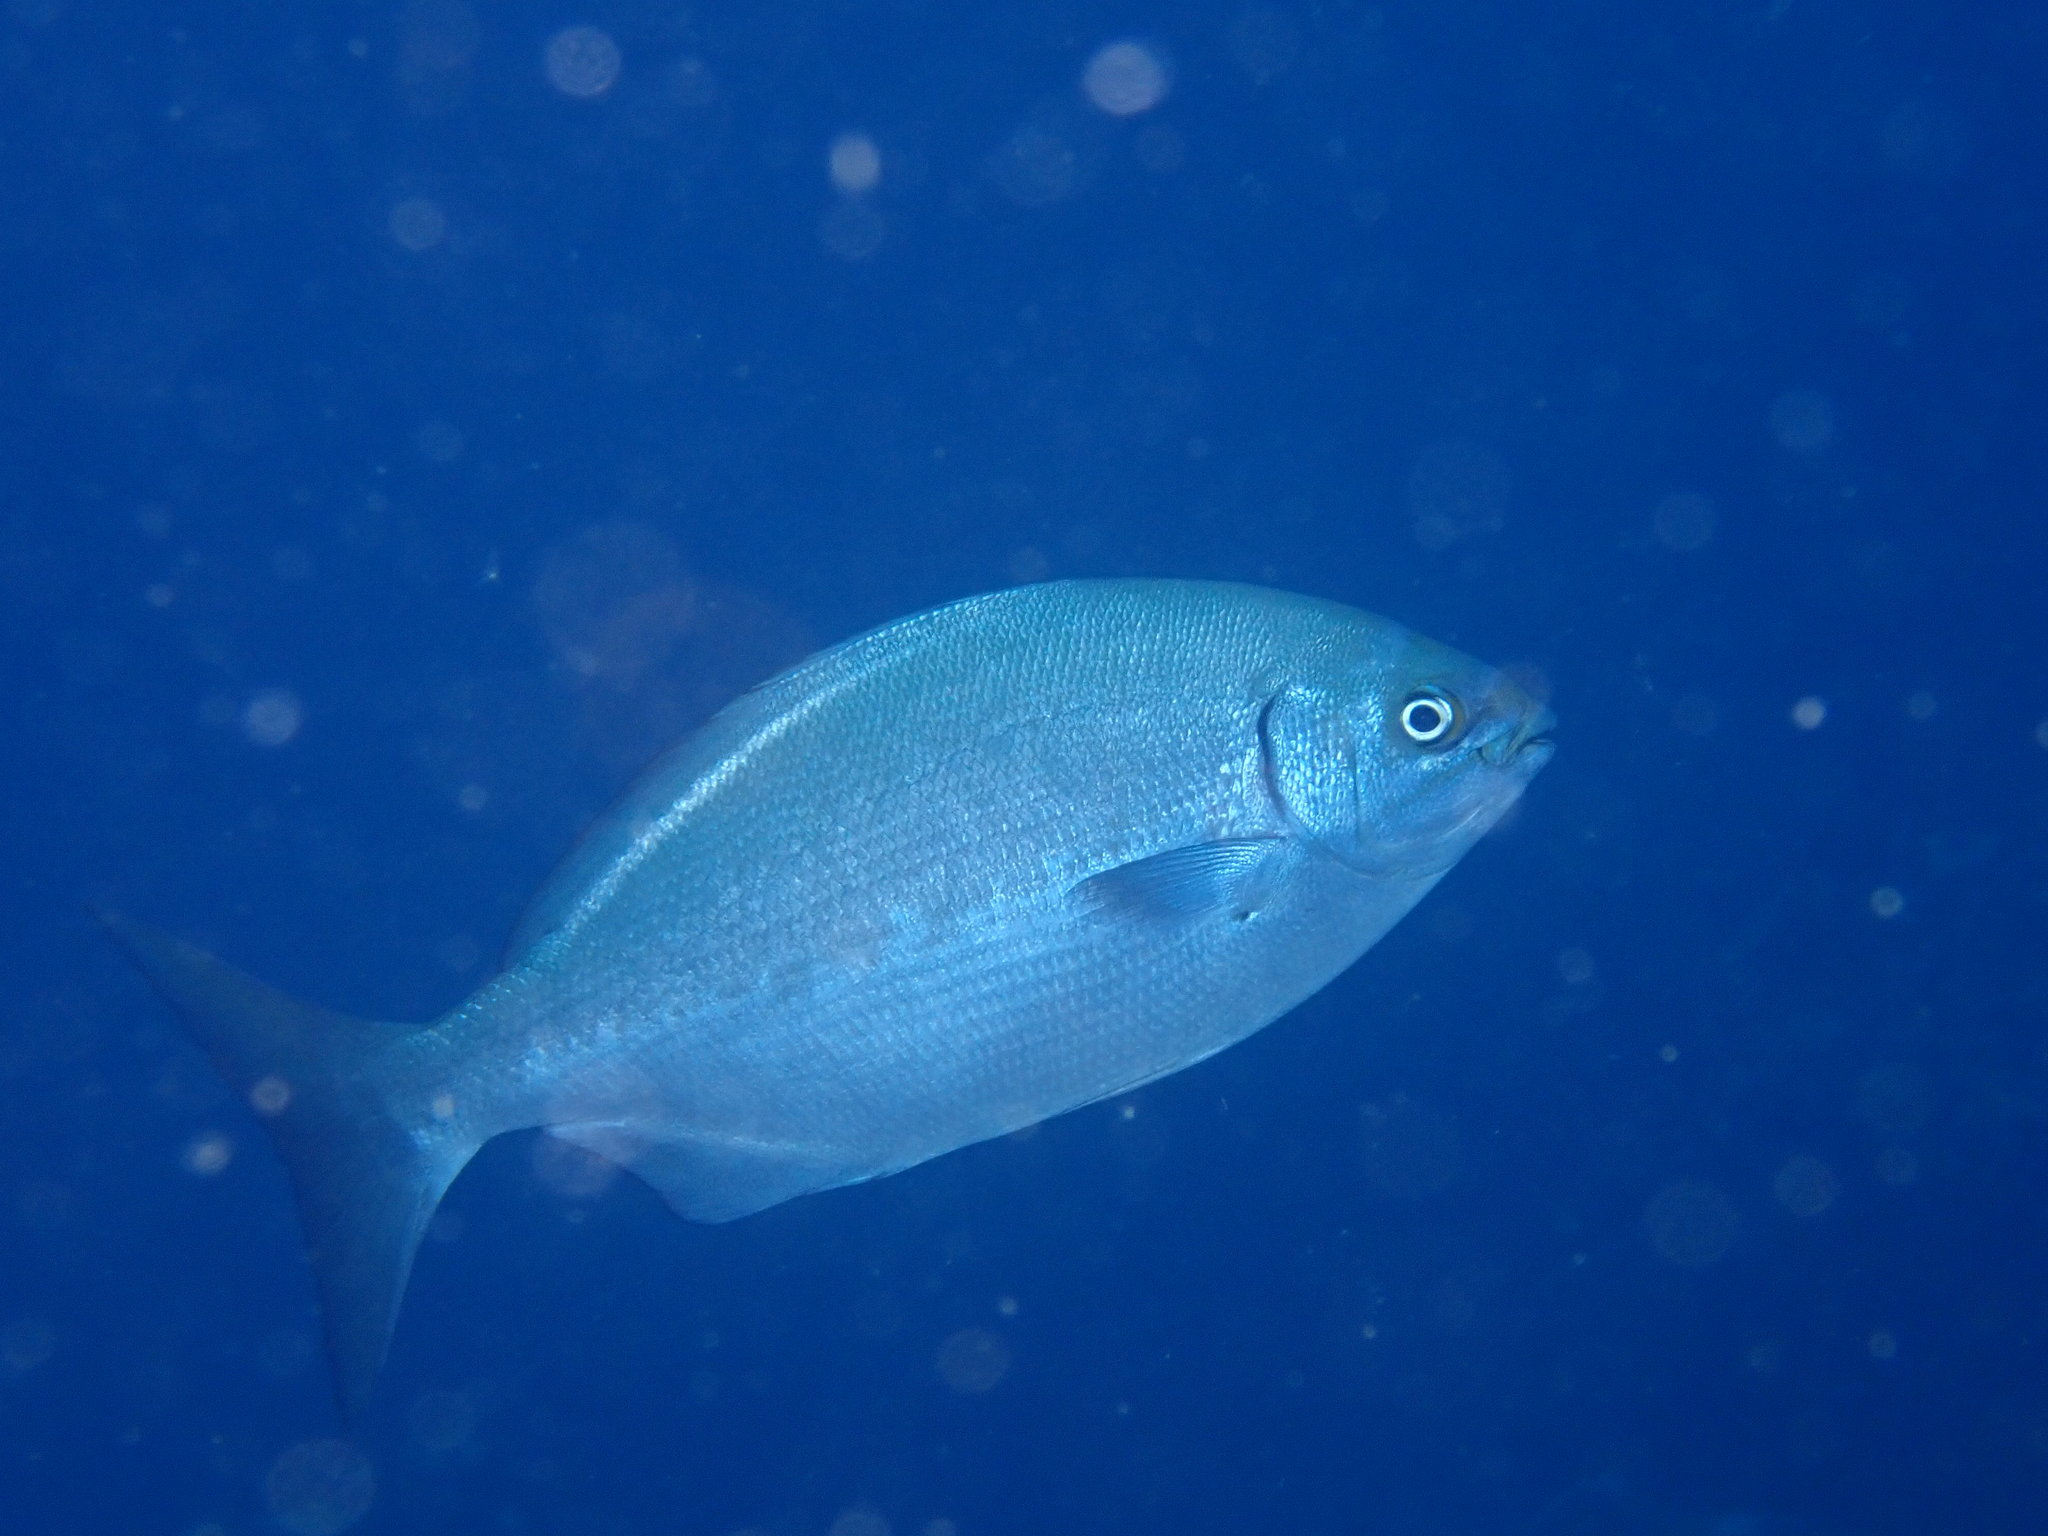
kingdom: Animalia
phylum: Chordata
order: Perciformes
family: Kyphosidae
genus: Kyphosus
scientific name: Kyphosus sectatrix
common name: Bermuda chub
